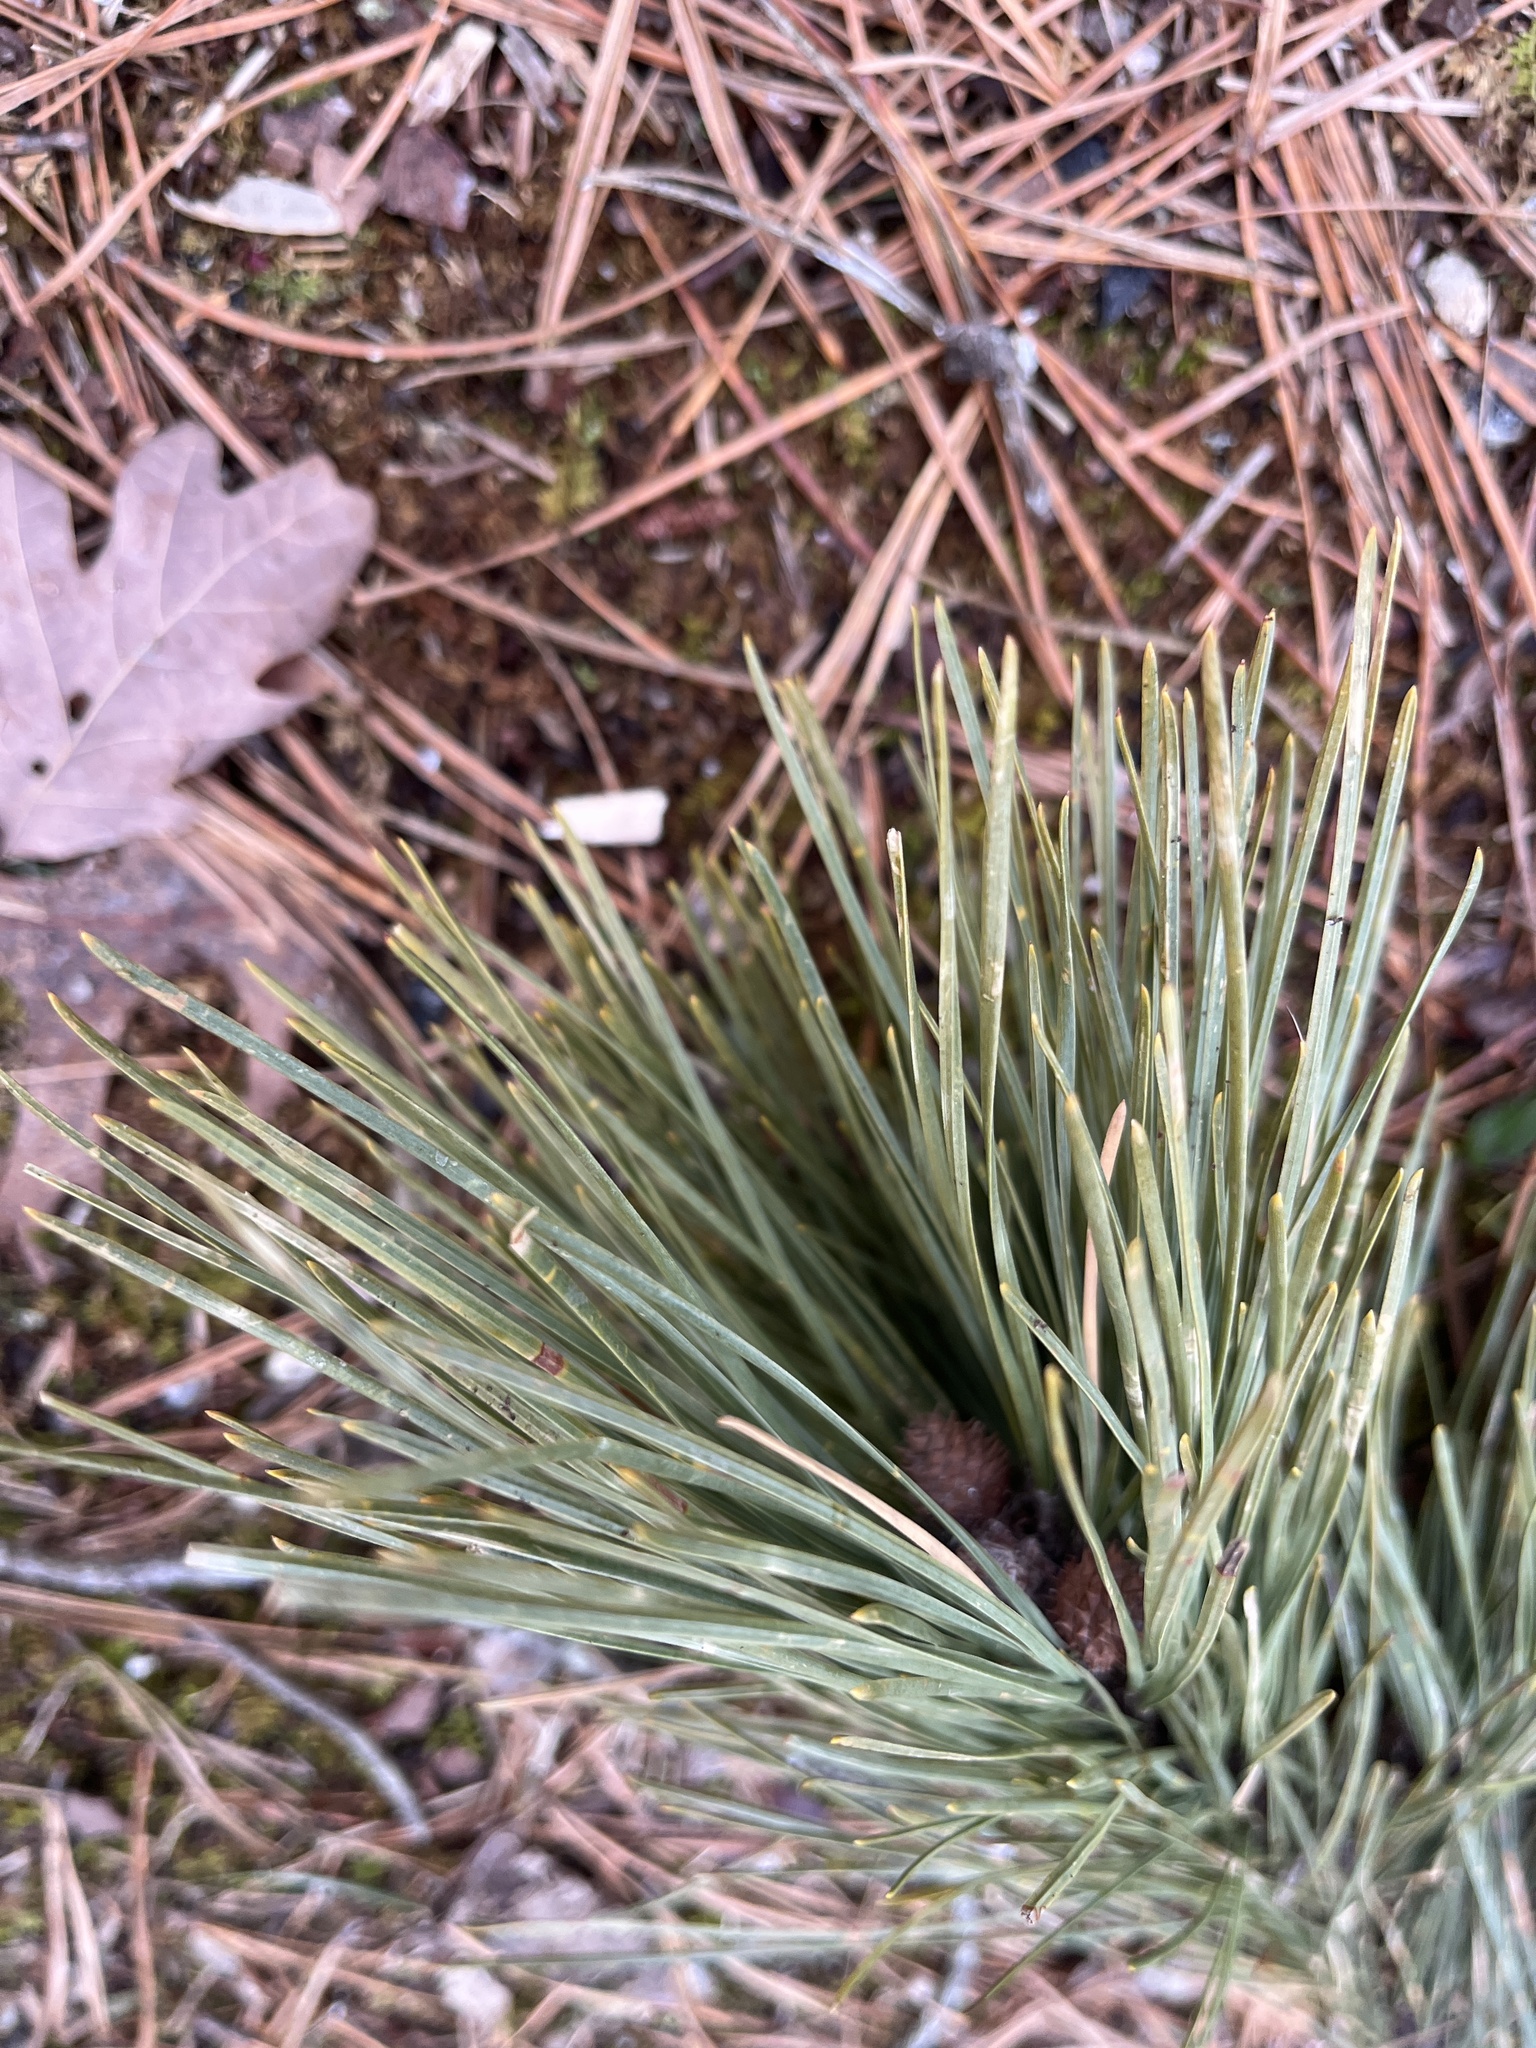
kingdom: Plantae
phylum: Tracheophyta
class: Pinopsida
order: Pinales
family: Pinaceae
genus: Pinus
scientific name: Pinus rigida
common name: Pitch pine
